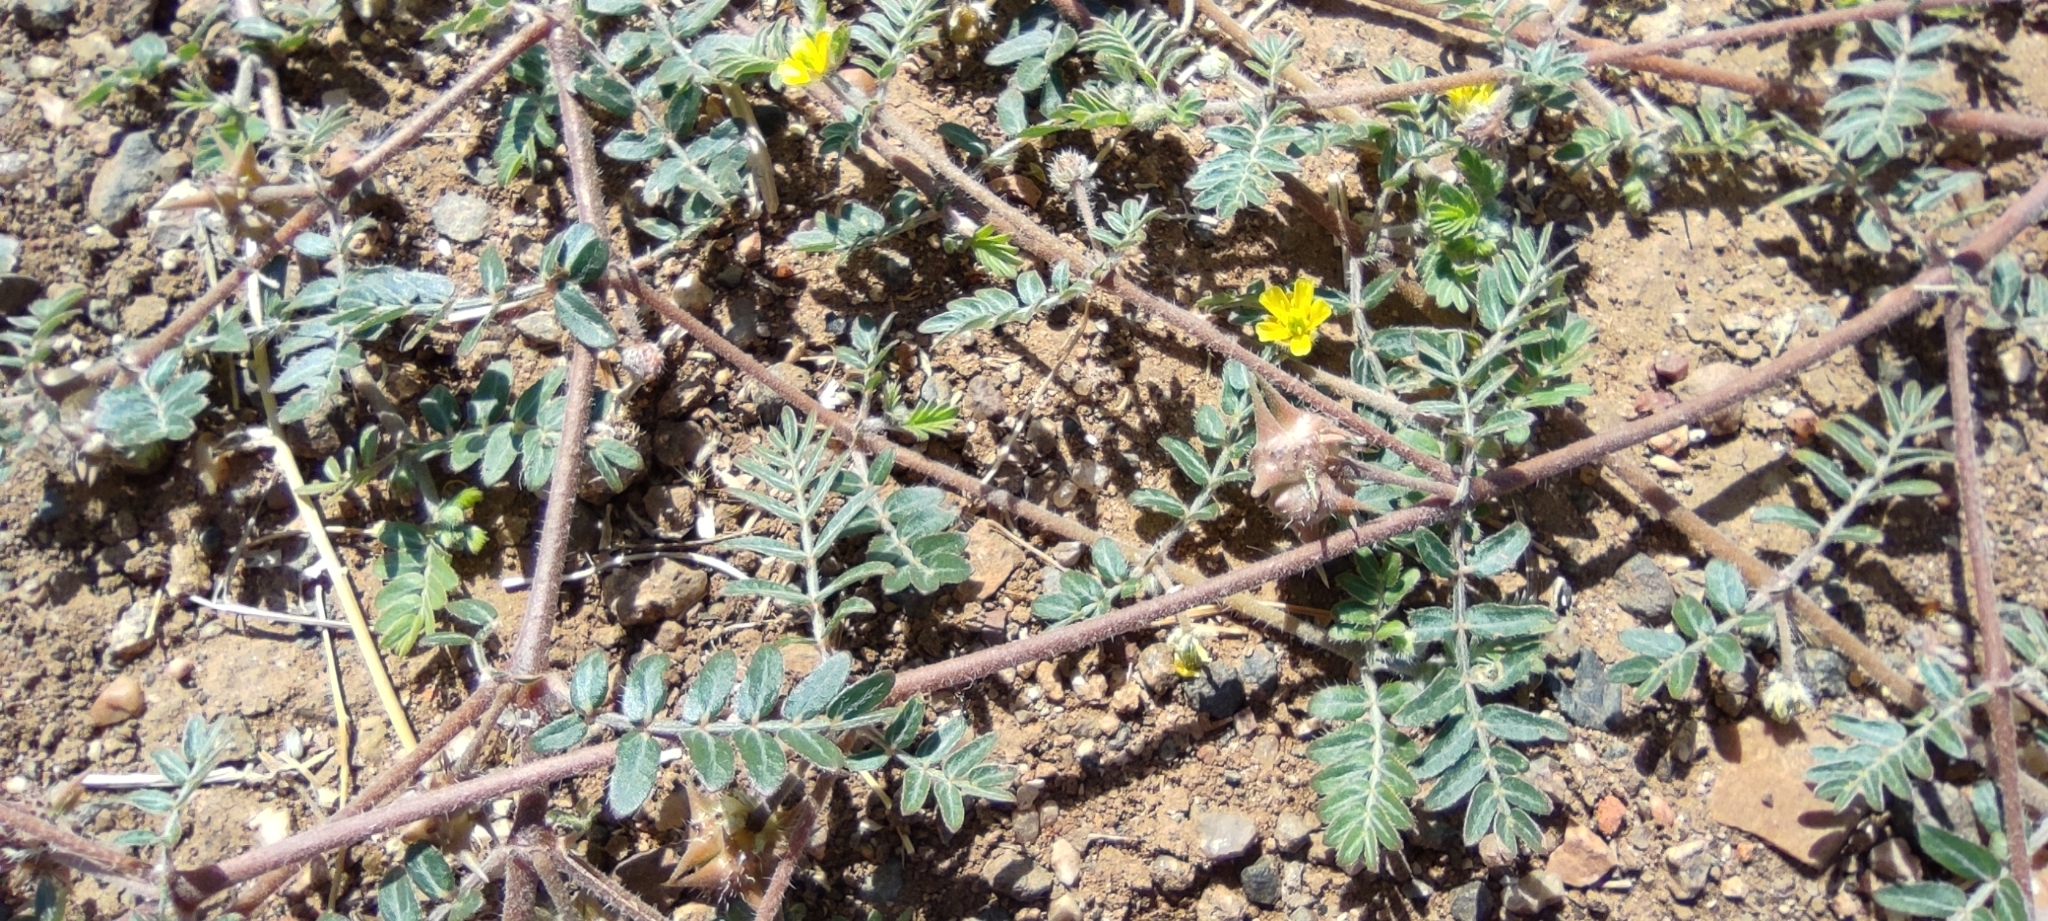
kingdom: Plantae
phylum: Tracheophyta
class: Magnoliopsida
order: Zygophyllales
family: Zygophyllaceae
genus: Tribulus
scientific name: Tribulus terrestris
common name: Puncturevine
